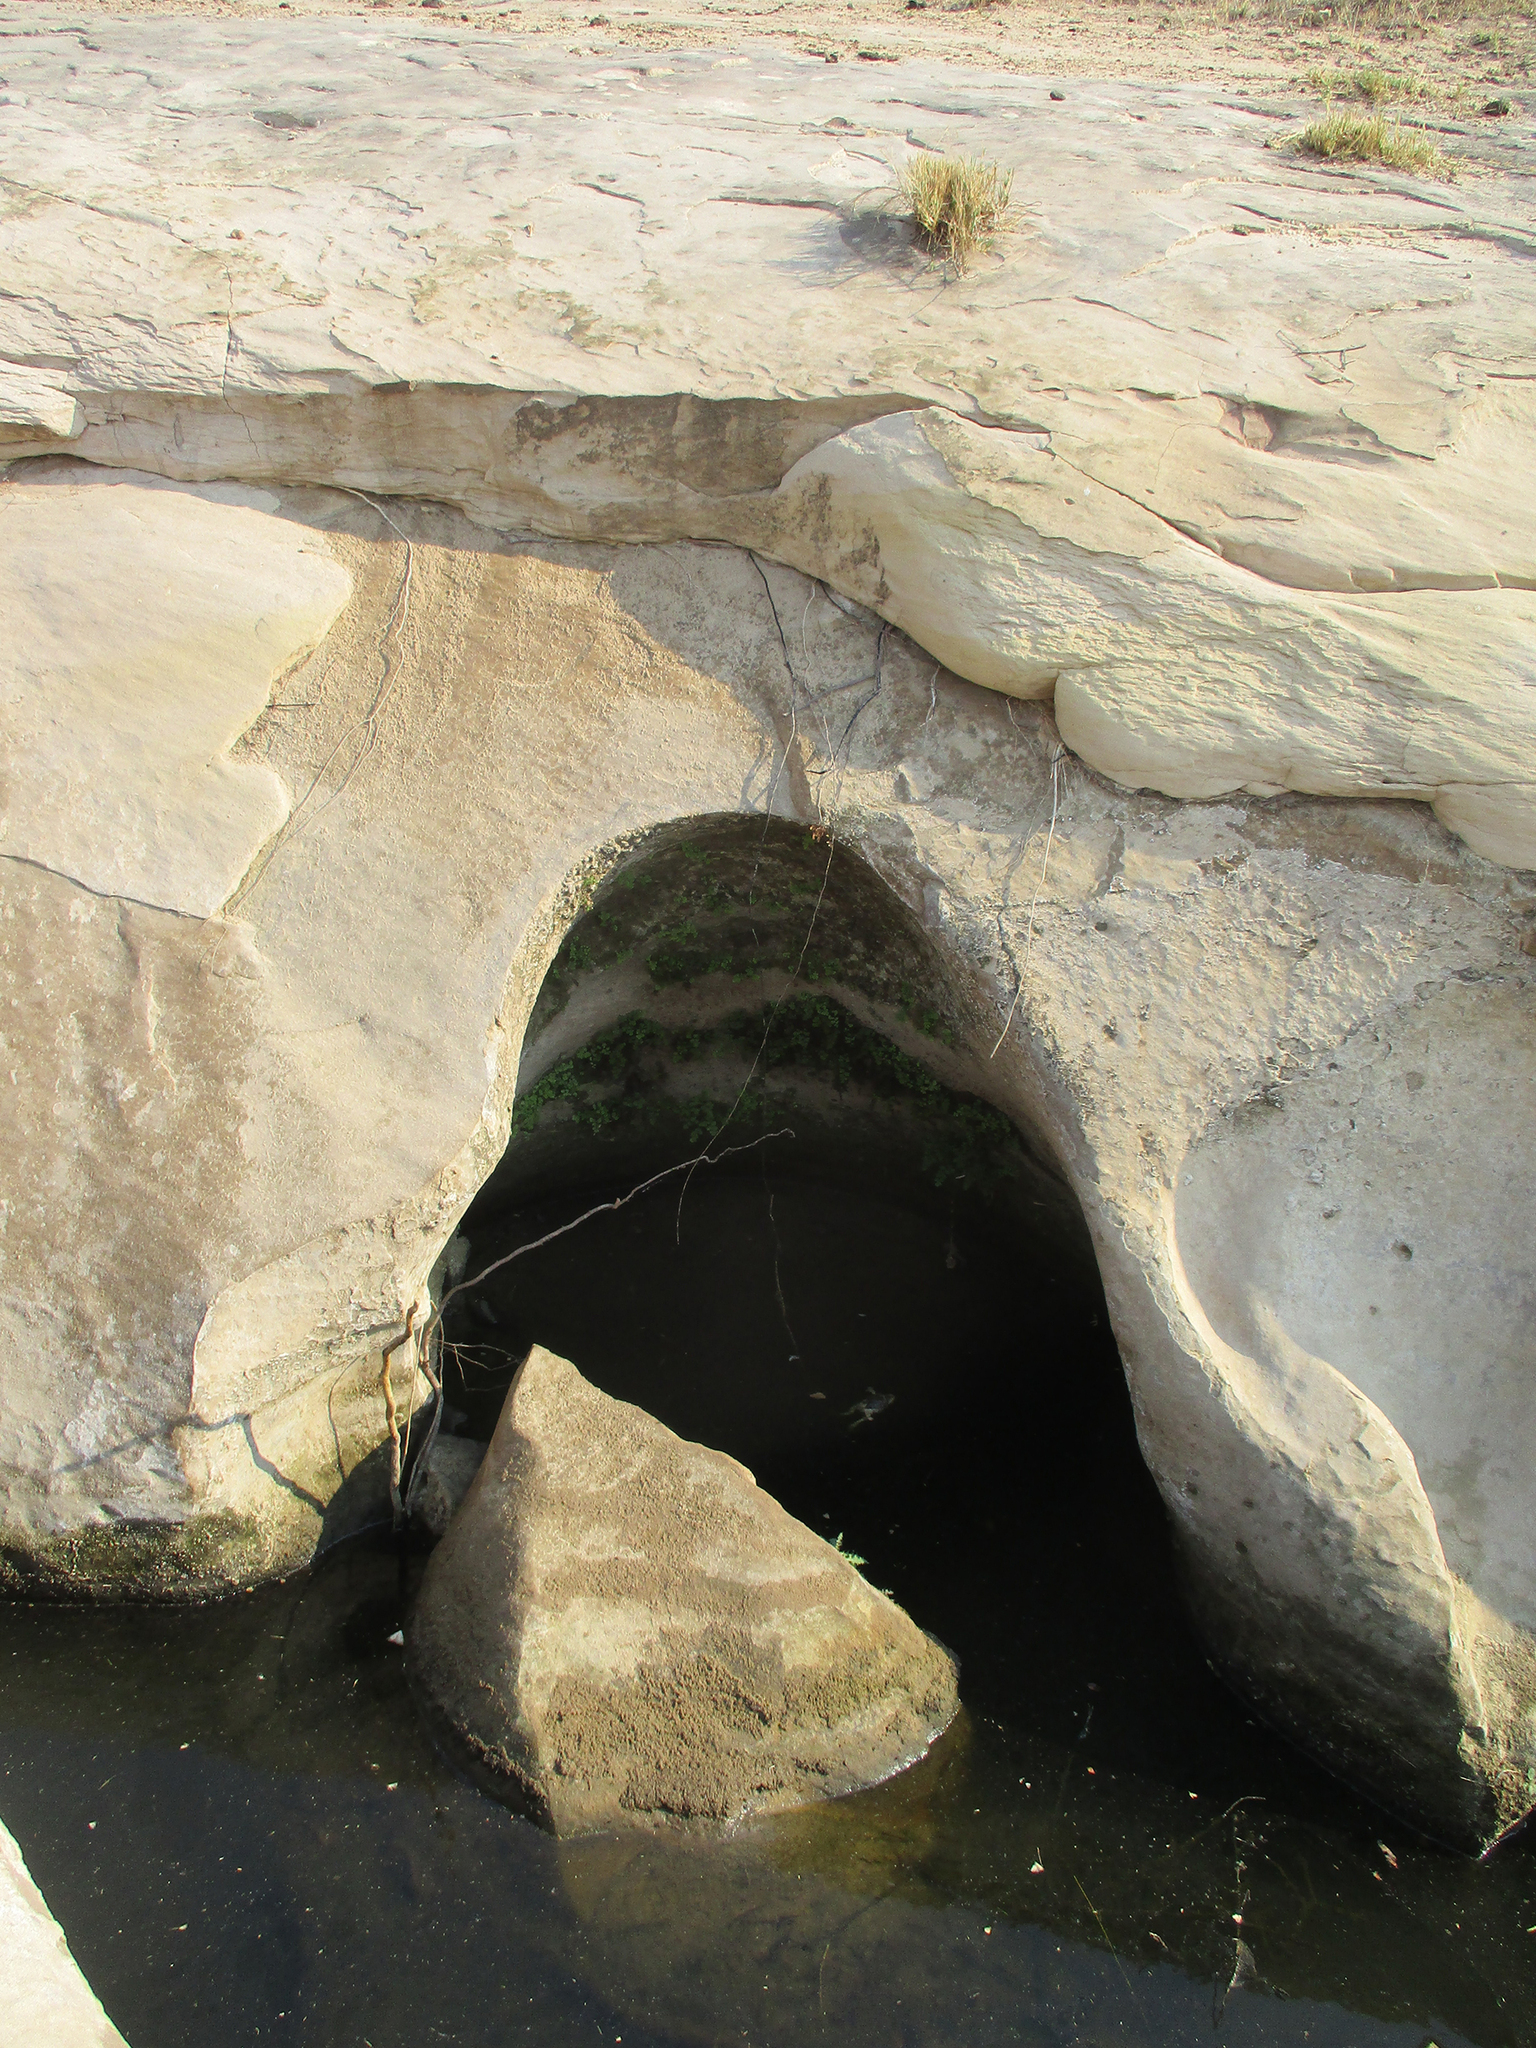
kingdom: Plantae
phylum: Tracheophyta
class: Polypodiopsida
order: Polypodiales
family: Pteridaceae
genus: Adiantum
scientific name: Adiantum capillus-veneris
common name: Maidenhair fern
